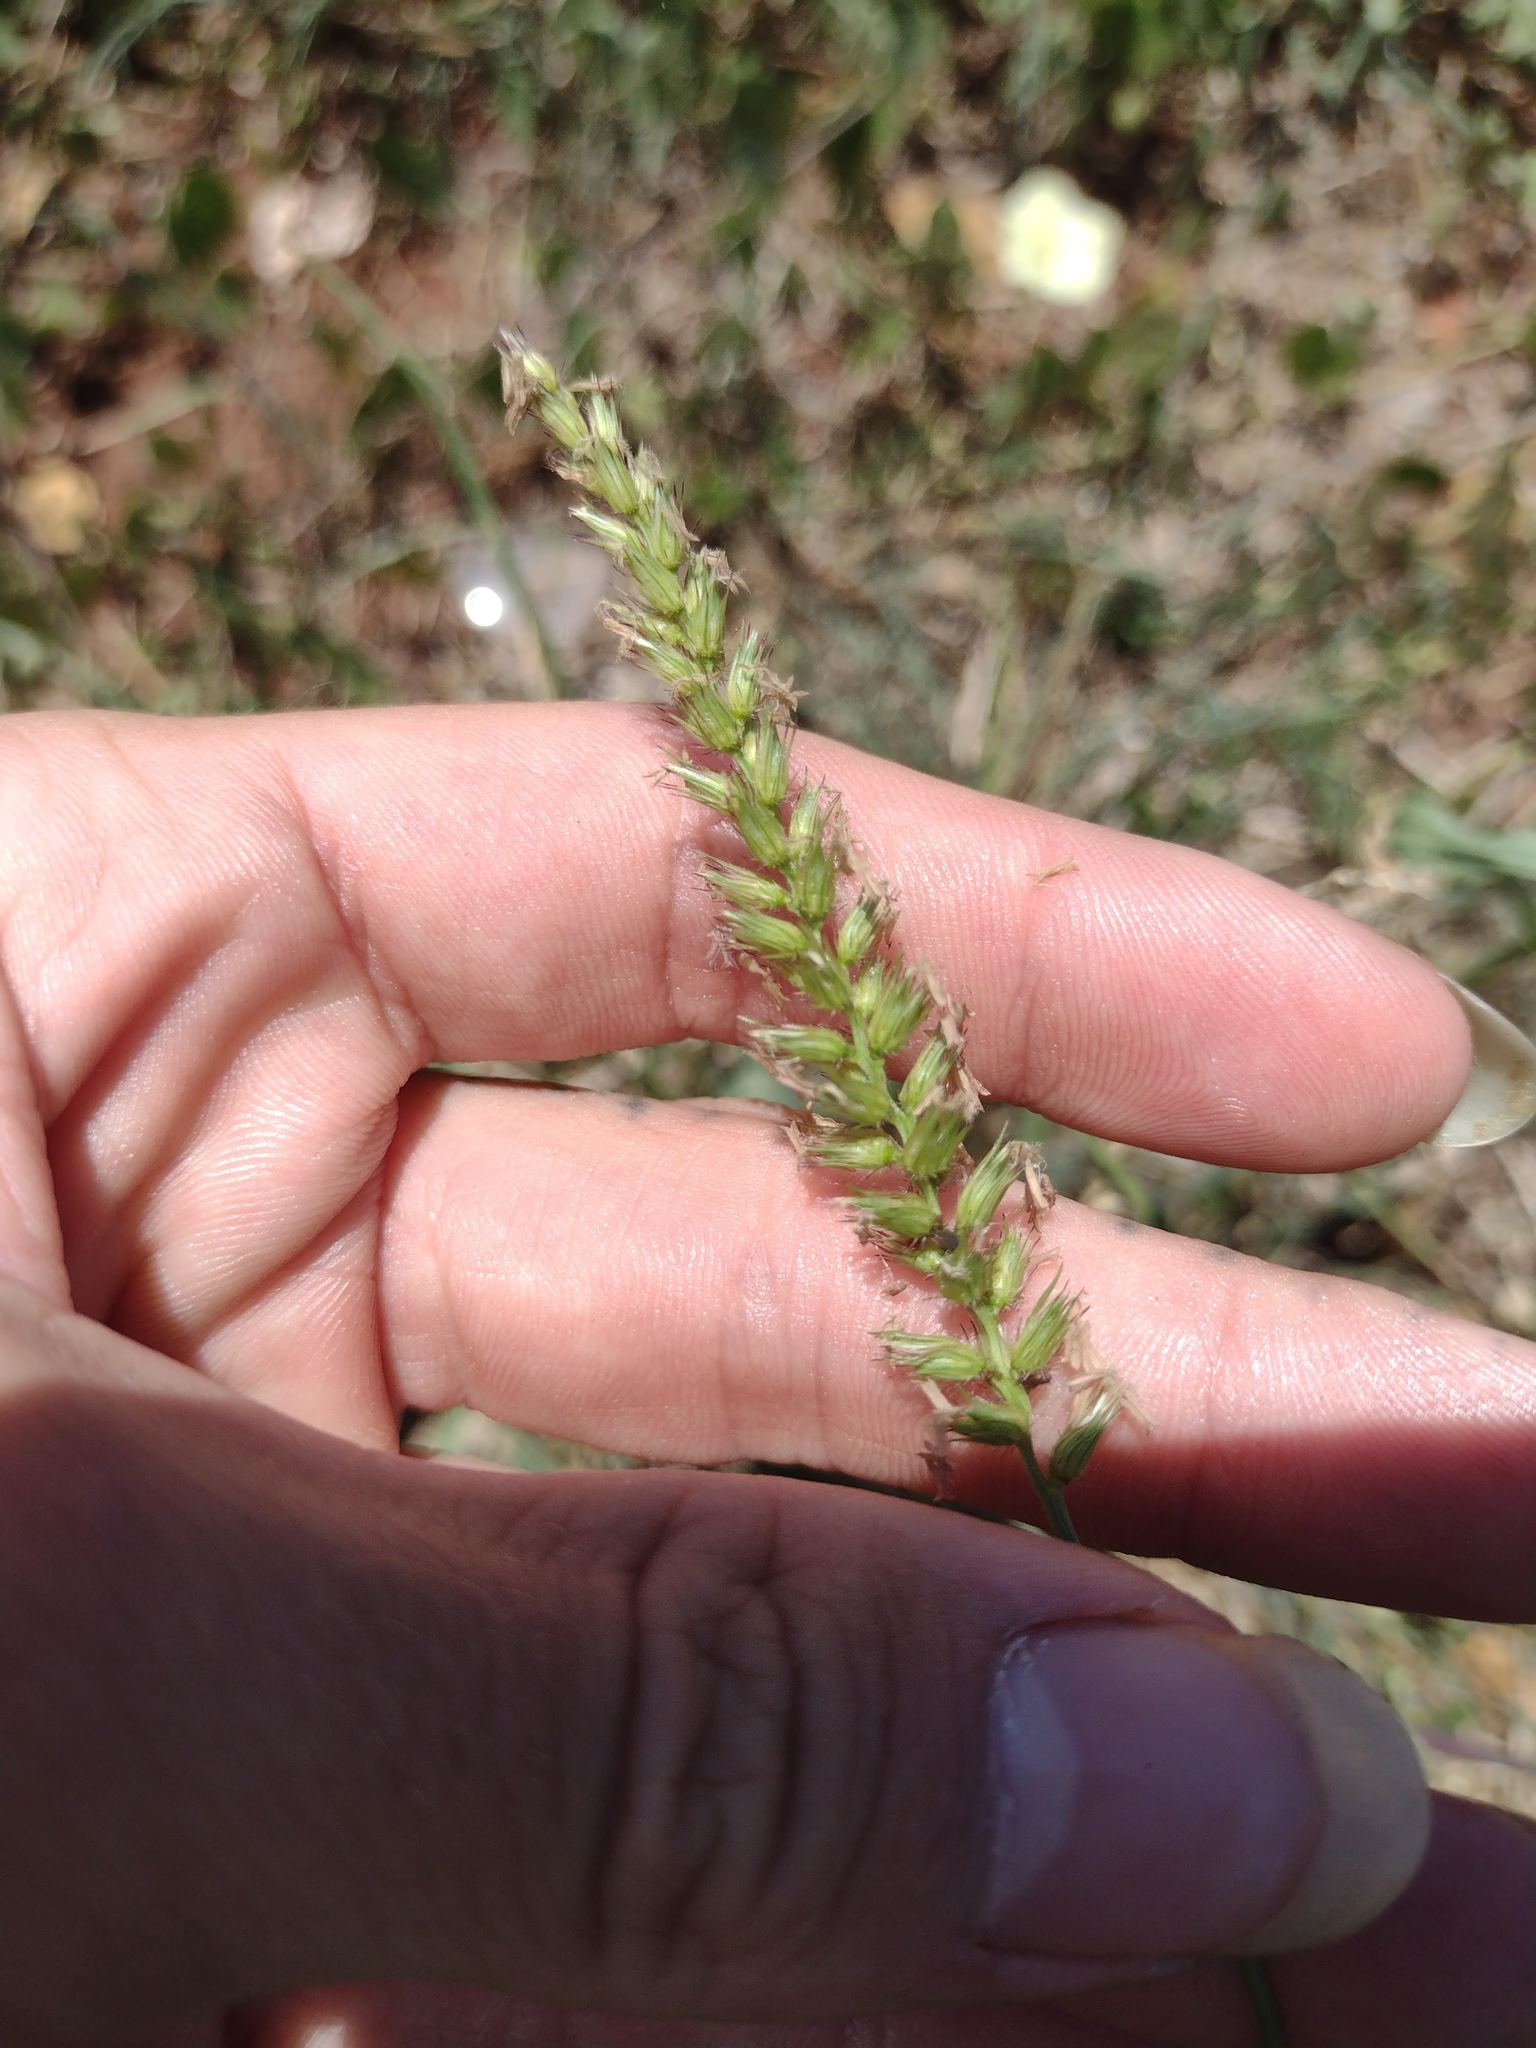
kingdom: Plantae
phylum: Tracheophyta
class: Liliopsida
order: Poales
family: Poaceae
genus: Cenchrus
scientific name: Cenchrus setigerus
